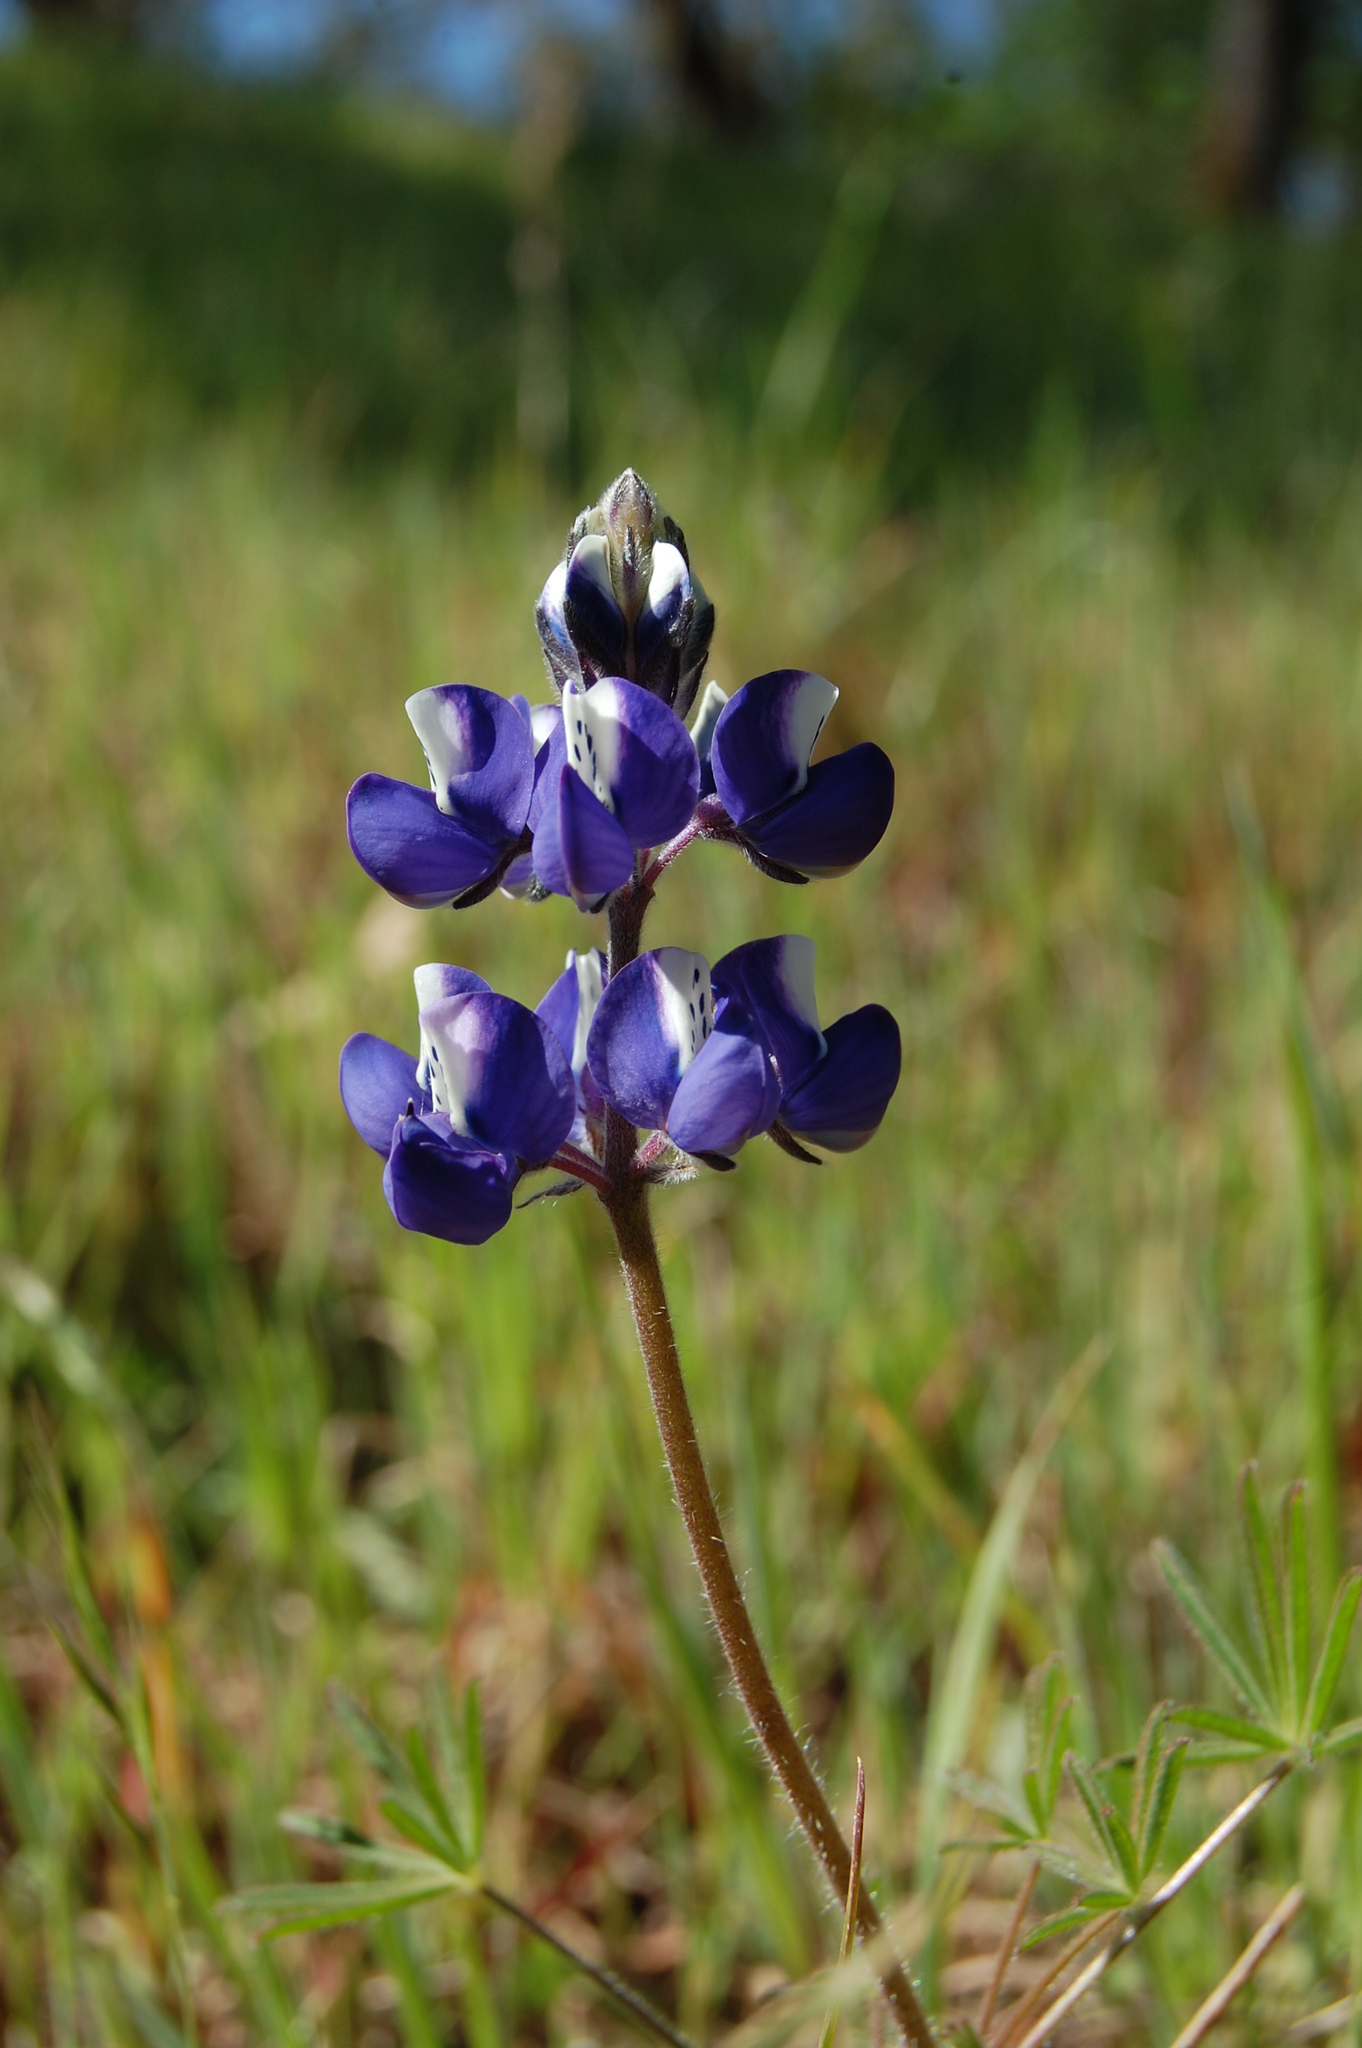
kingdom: Plantae
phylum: Tracheophyta
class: Magnoliopsida
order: Fabales
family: Fabaceae
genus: Lupinus
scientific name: Lupinus nanus
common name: Orean blue lupin
